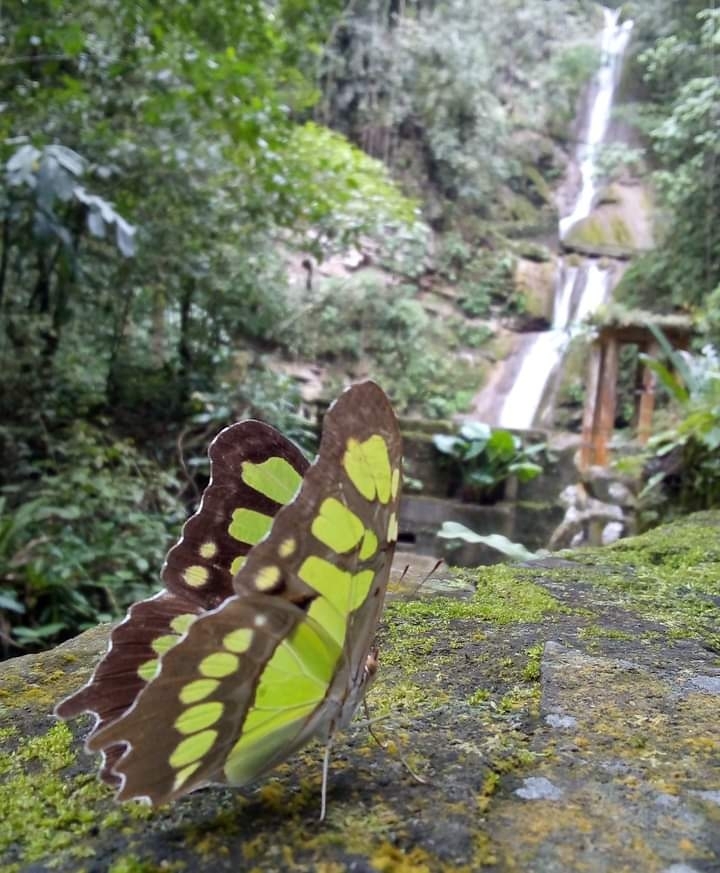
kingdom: Animalia
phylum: Arthropoda
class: Insecta
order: Lepidoptera
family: Nymphalidae
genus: Siproeta
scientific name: Siproeta stelenes
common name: Malachite
